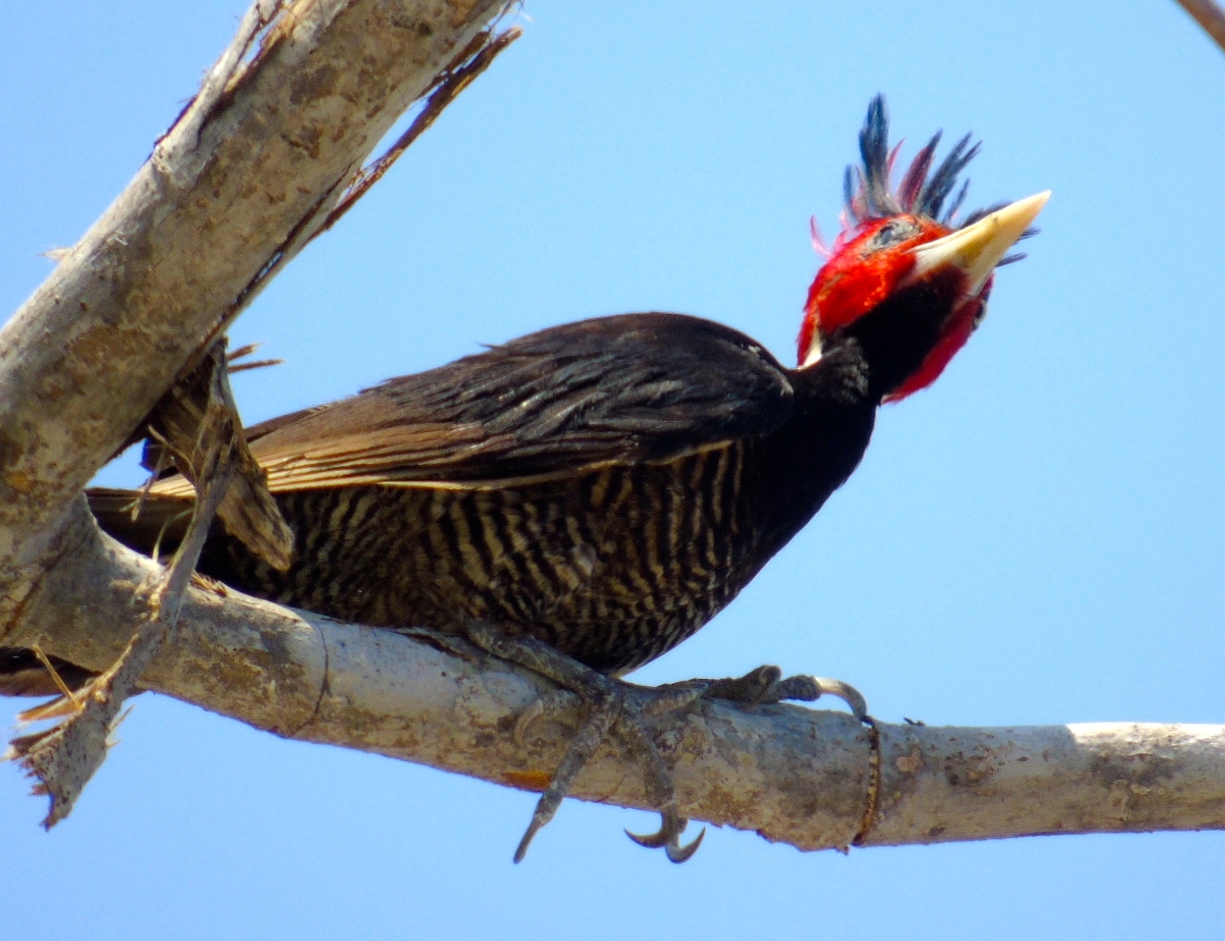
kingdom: Animalia
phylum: Chordata
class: Aves
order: Piciformes
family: Picidae
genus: Campephilus
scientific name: Campephilus guatemalensis
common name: Pale-billed woodpecker
